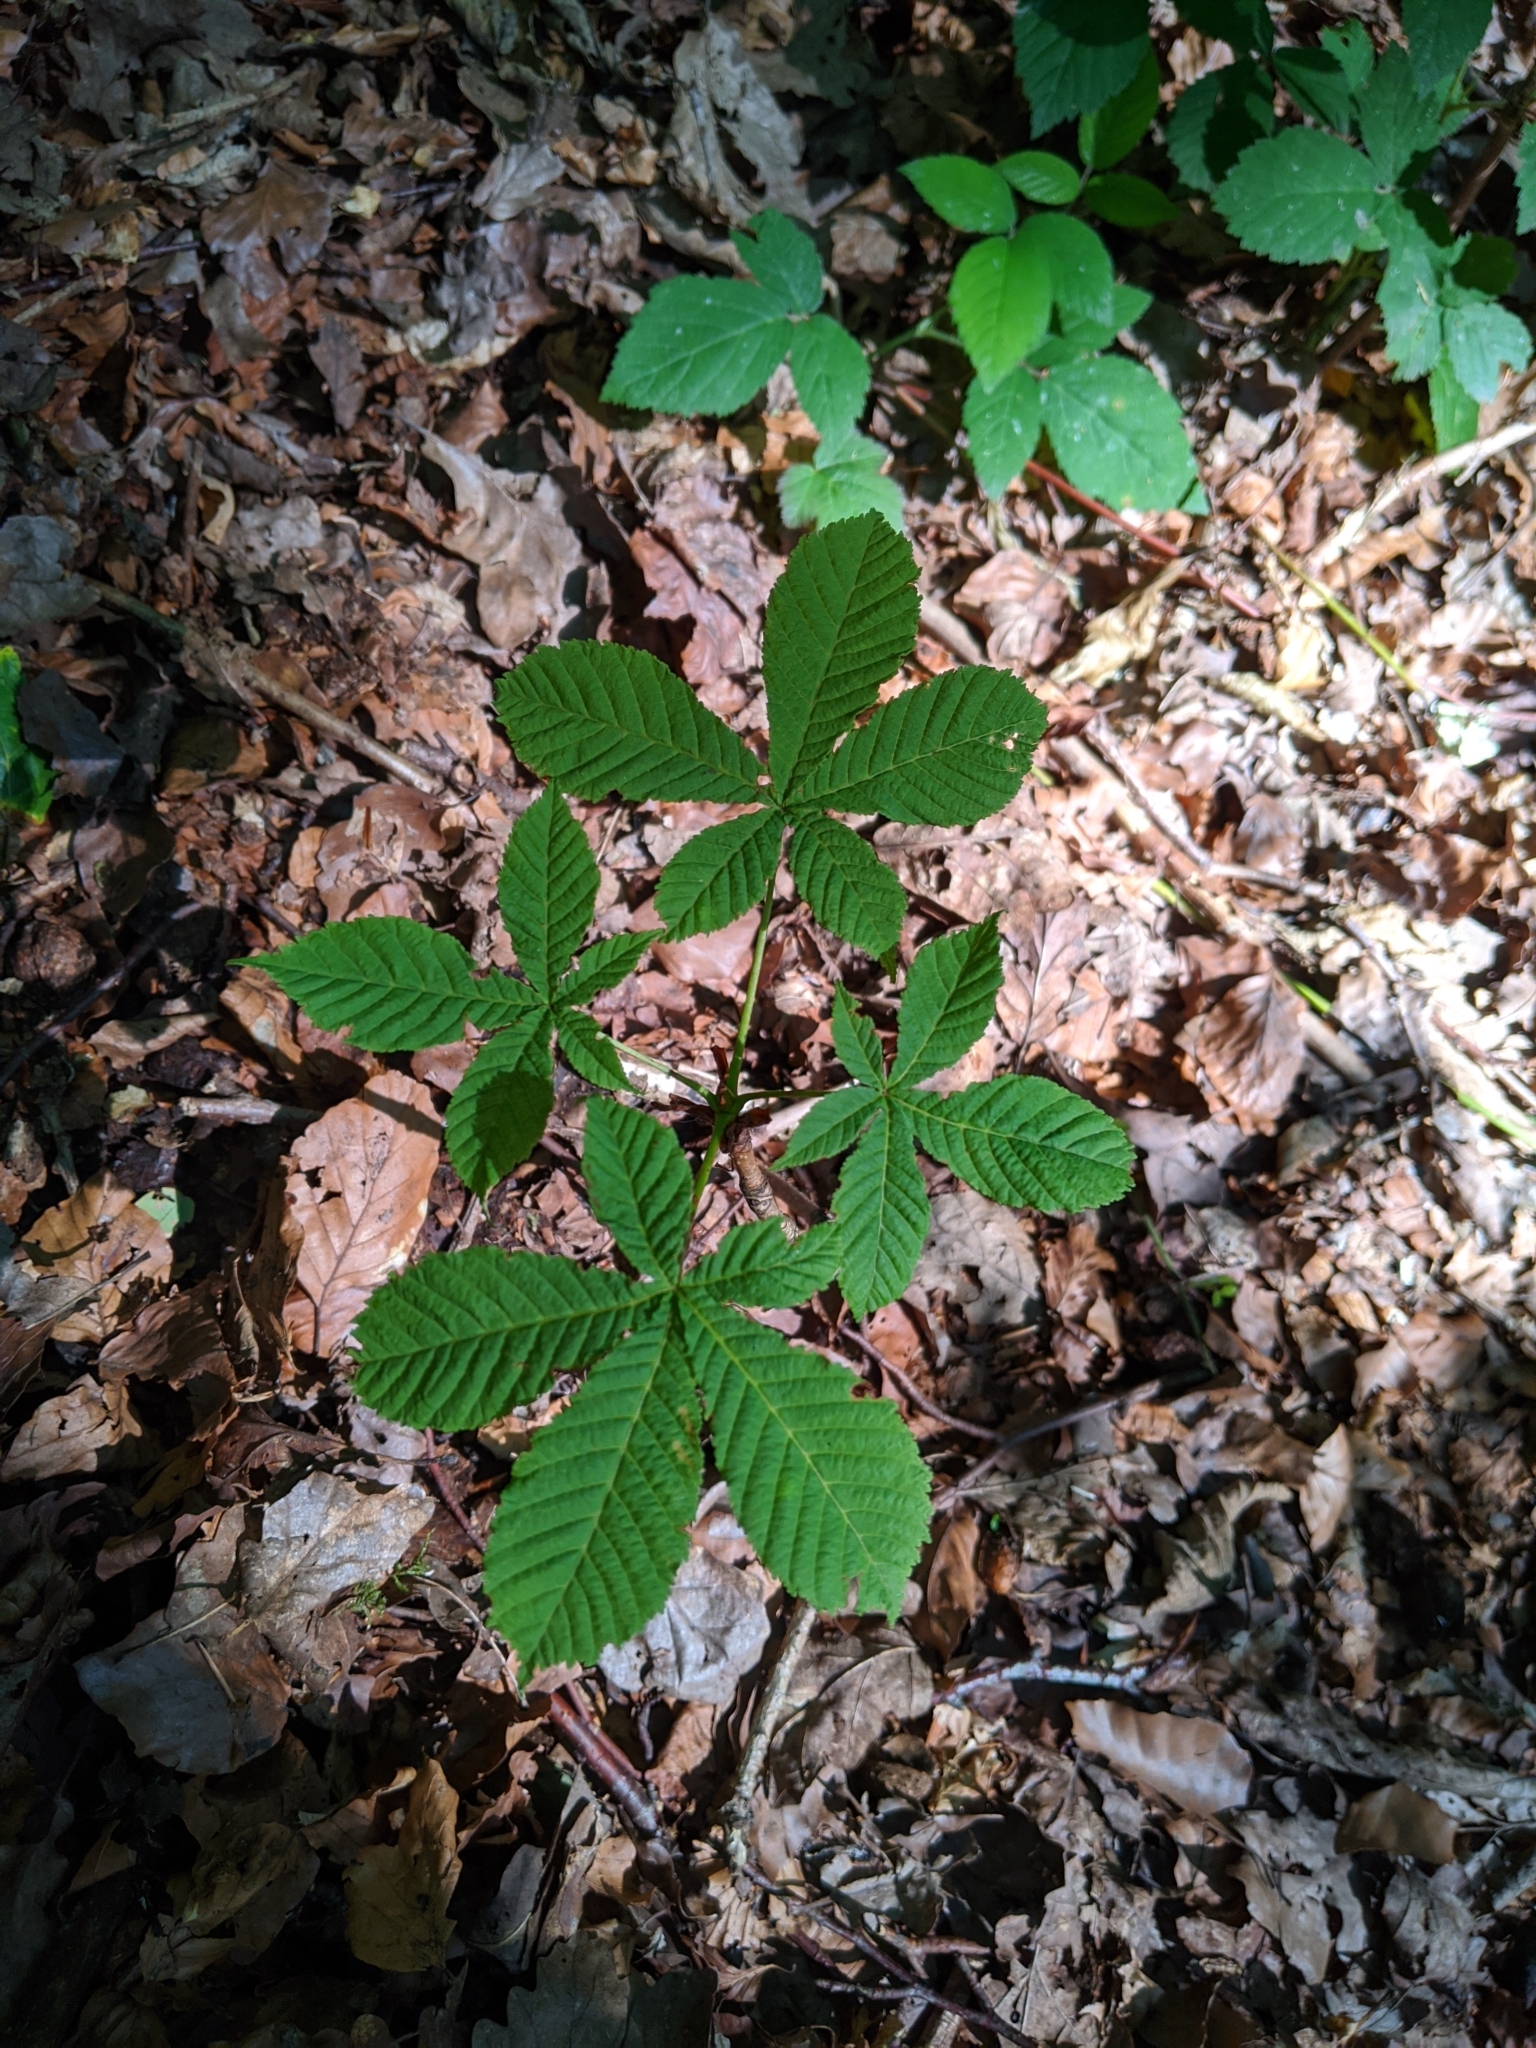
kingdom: Plantae
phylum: Tracheophyta
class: Magnoliopsida
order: Sapindales
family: Sapindaceae
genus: Aesculus
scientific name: Aesculus hippocastanum
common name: Horse-chestnut
